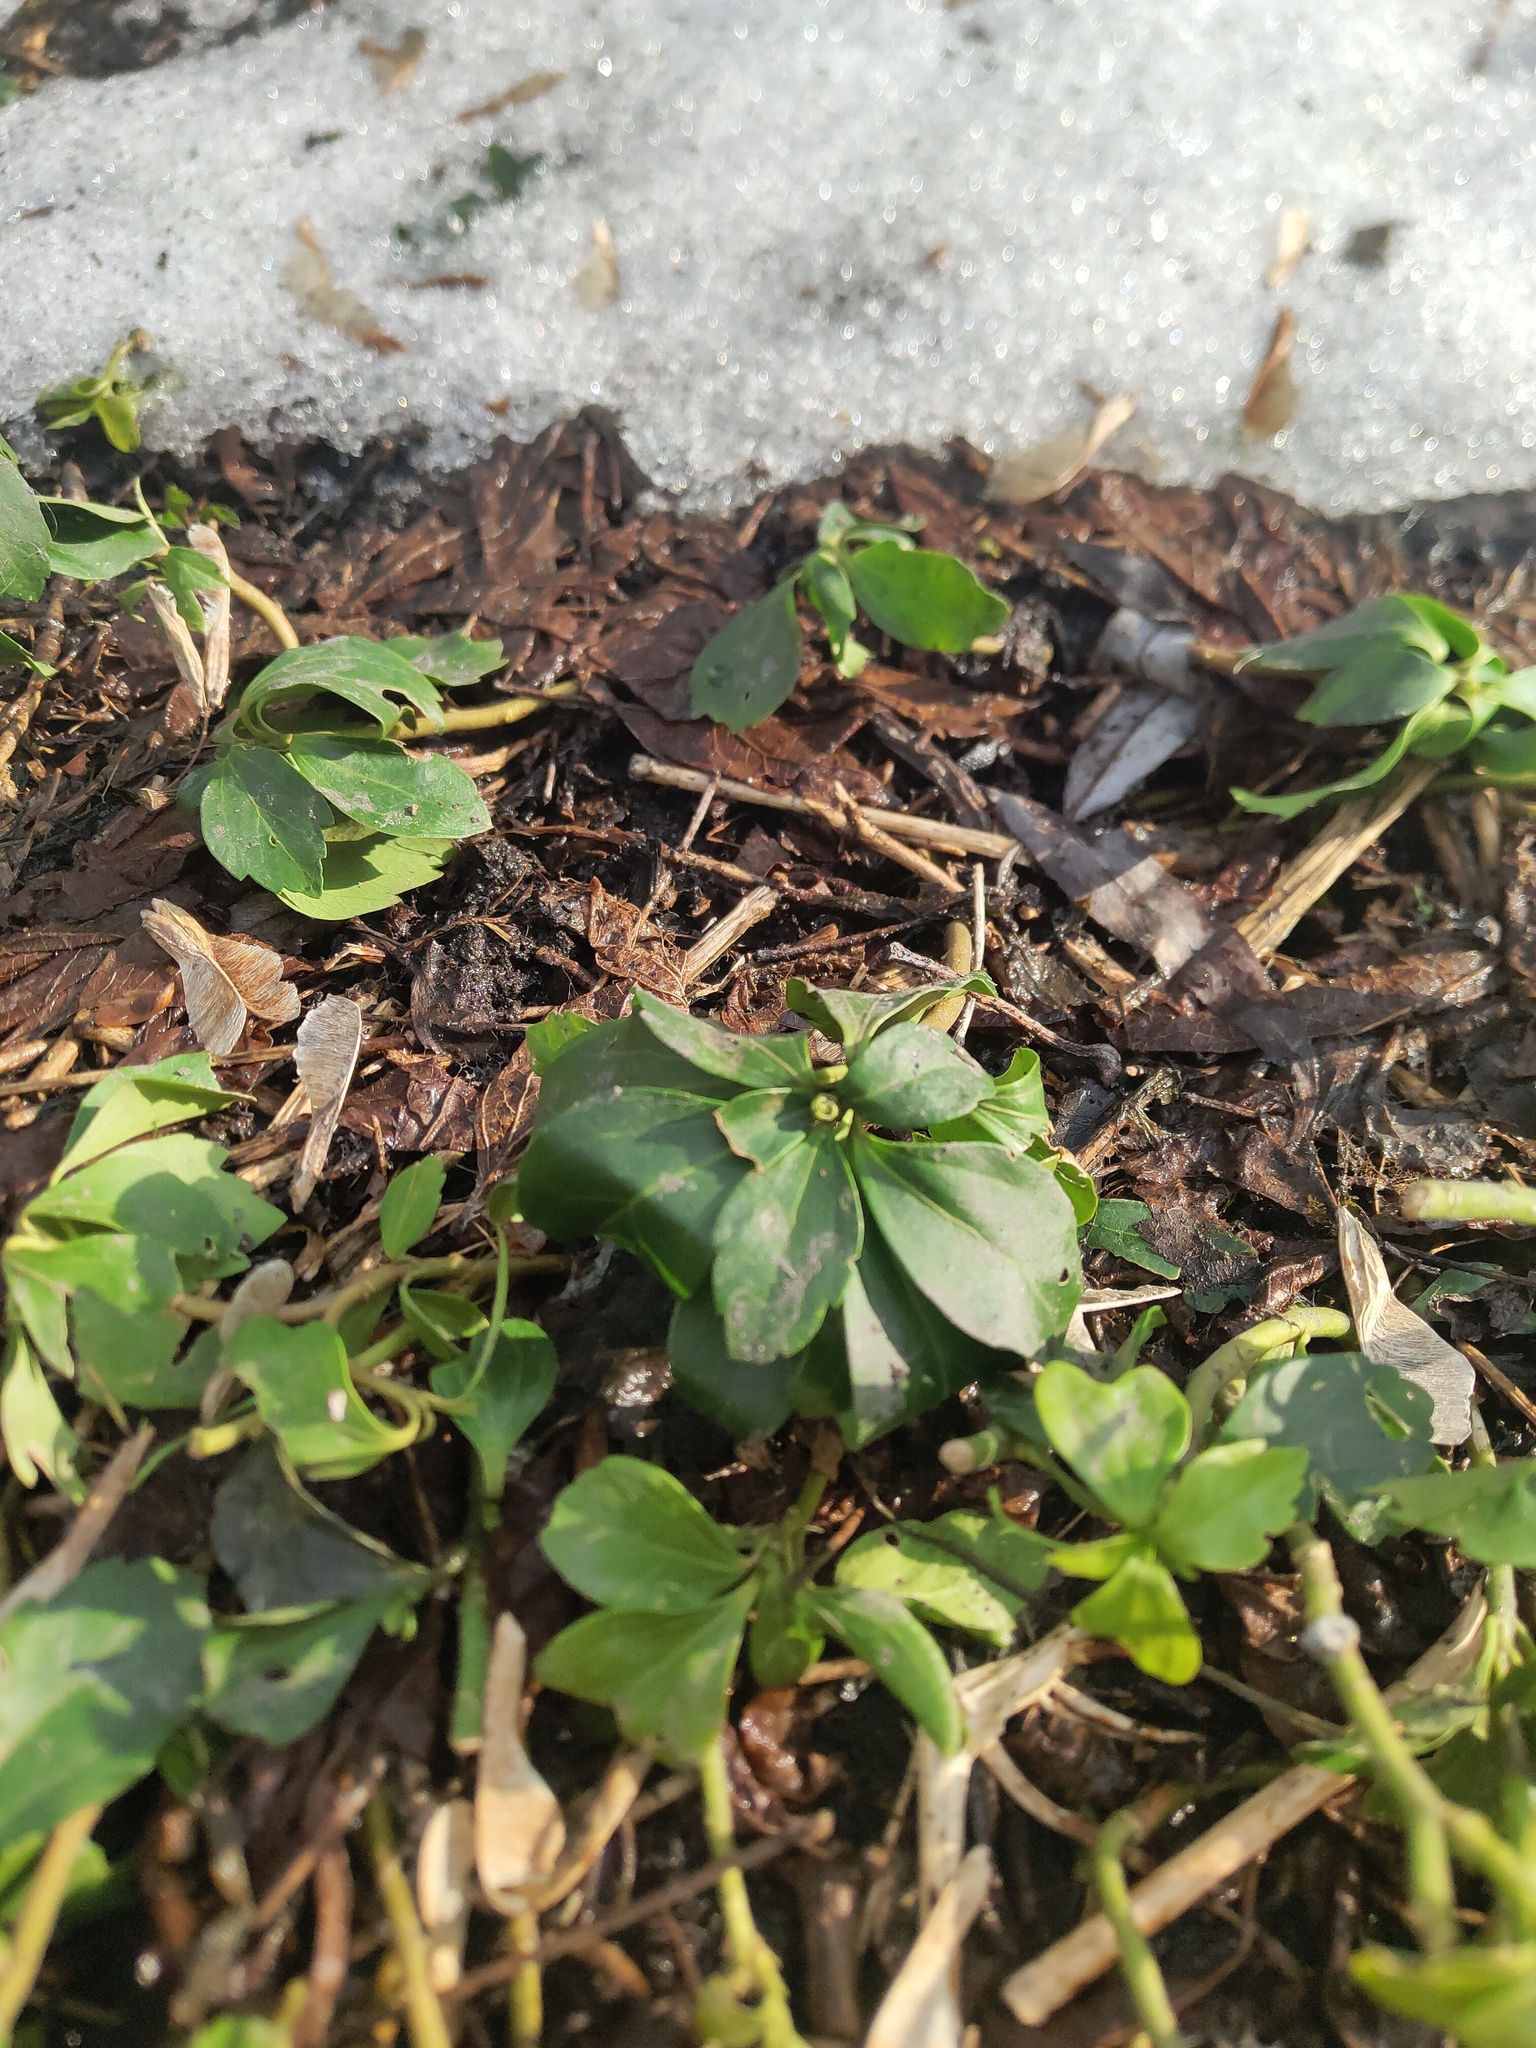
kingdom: Plantae
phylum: Tracheophyta
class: Magnoliopsida
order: Buxales
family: Buxaceae
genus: Pachysandra
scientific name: Pachysandra terminalis
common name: Japanese pachysandra
